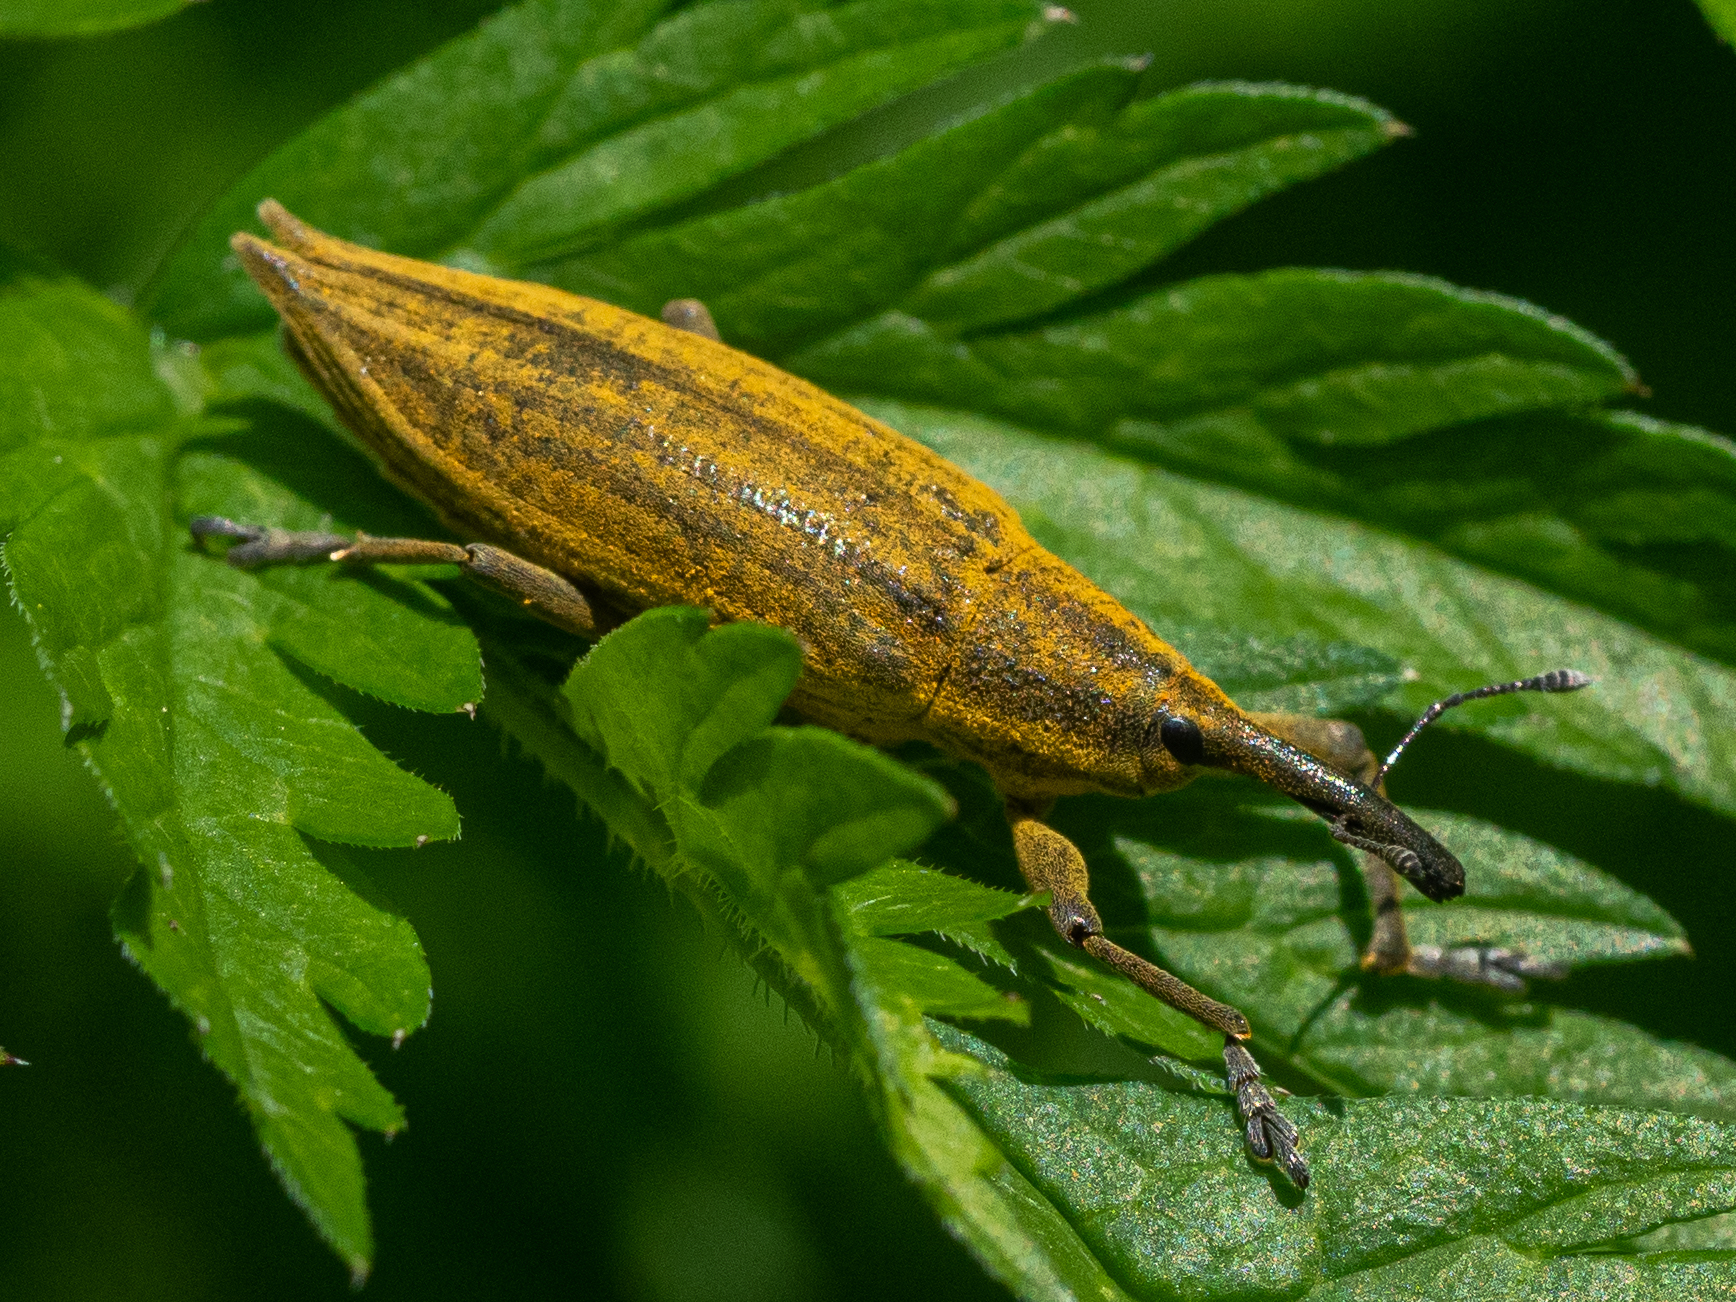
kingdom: Animalia
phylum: Arthropoda
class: Insecta
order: Coleoptera
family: Curculionidae
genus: Lixus
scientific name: Lixus iridis
